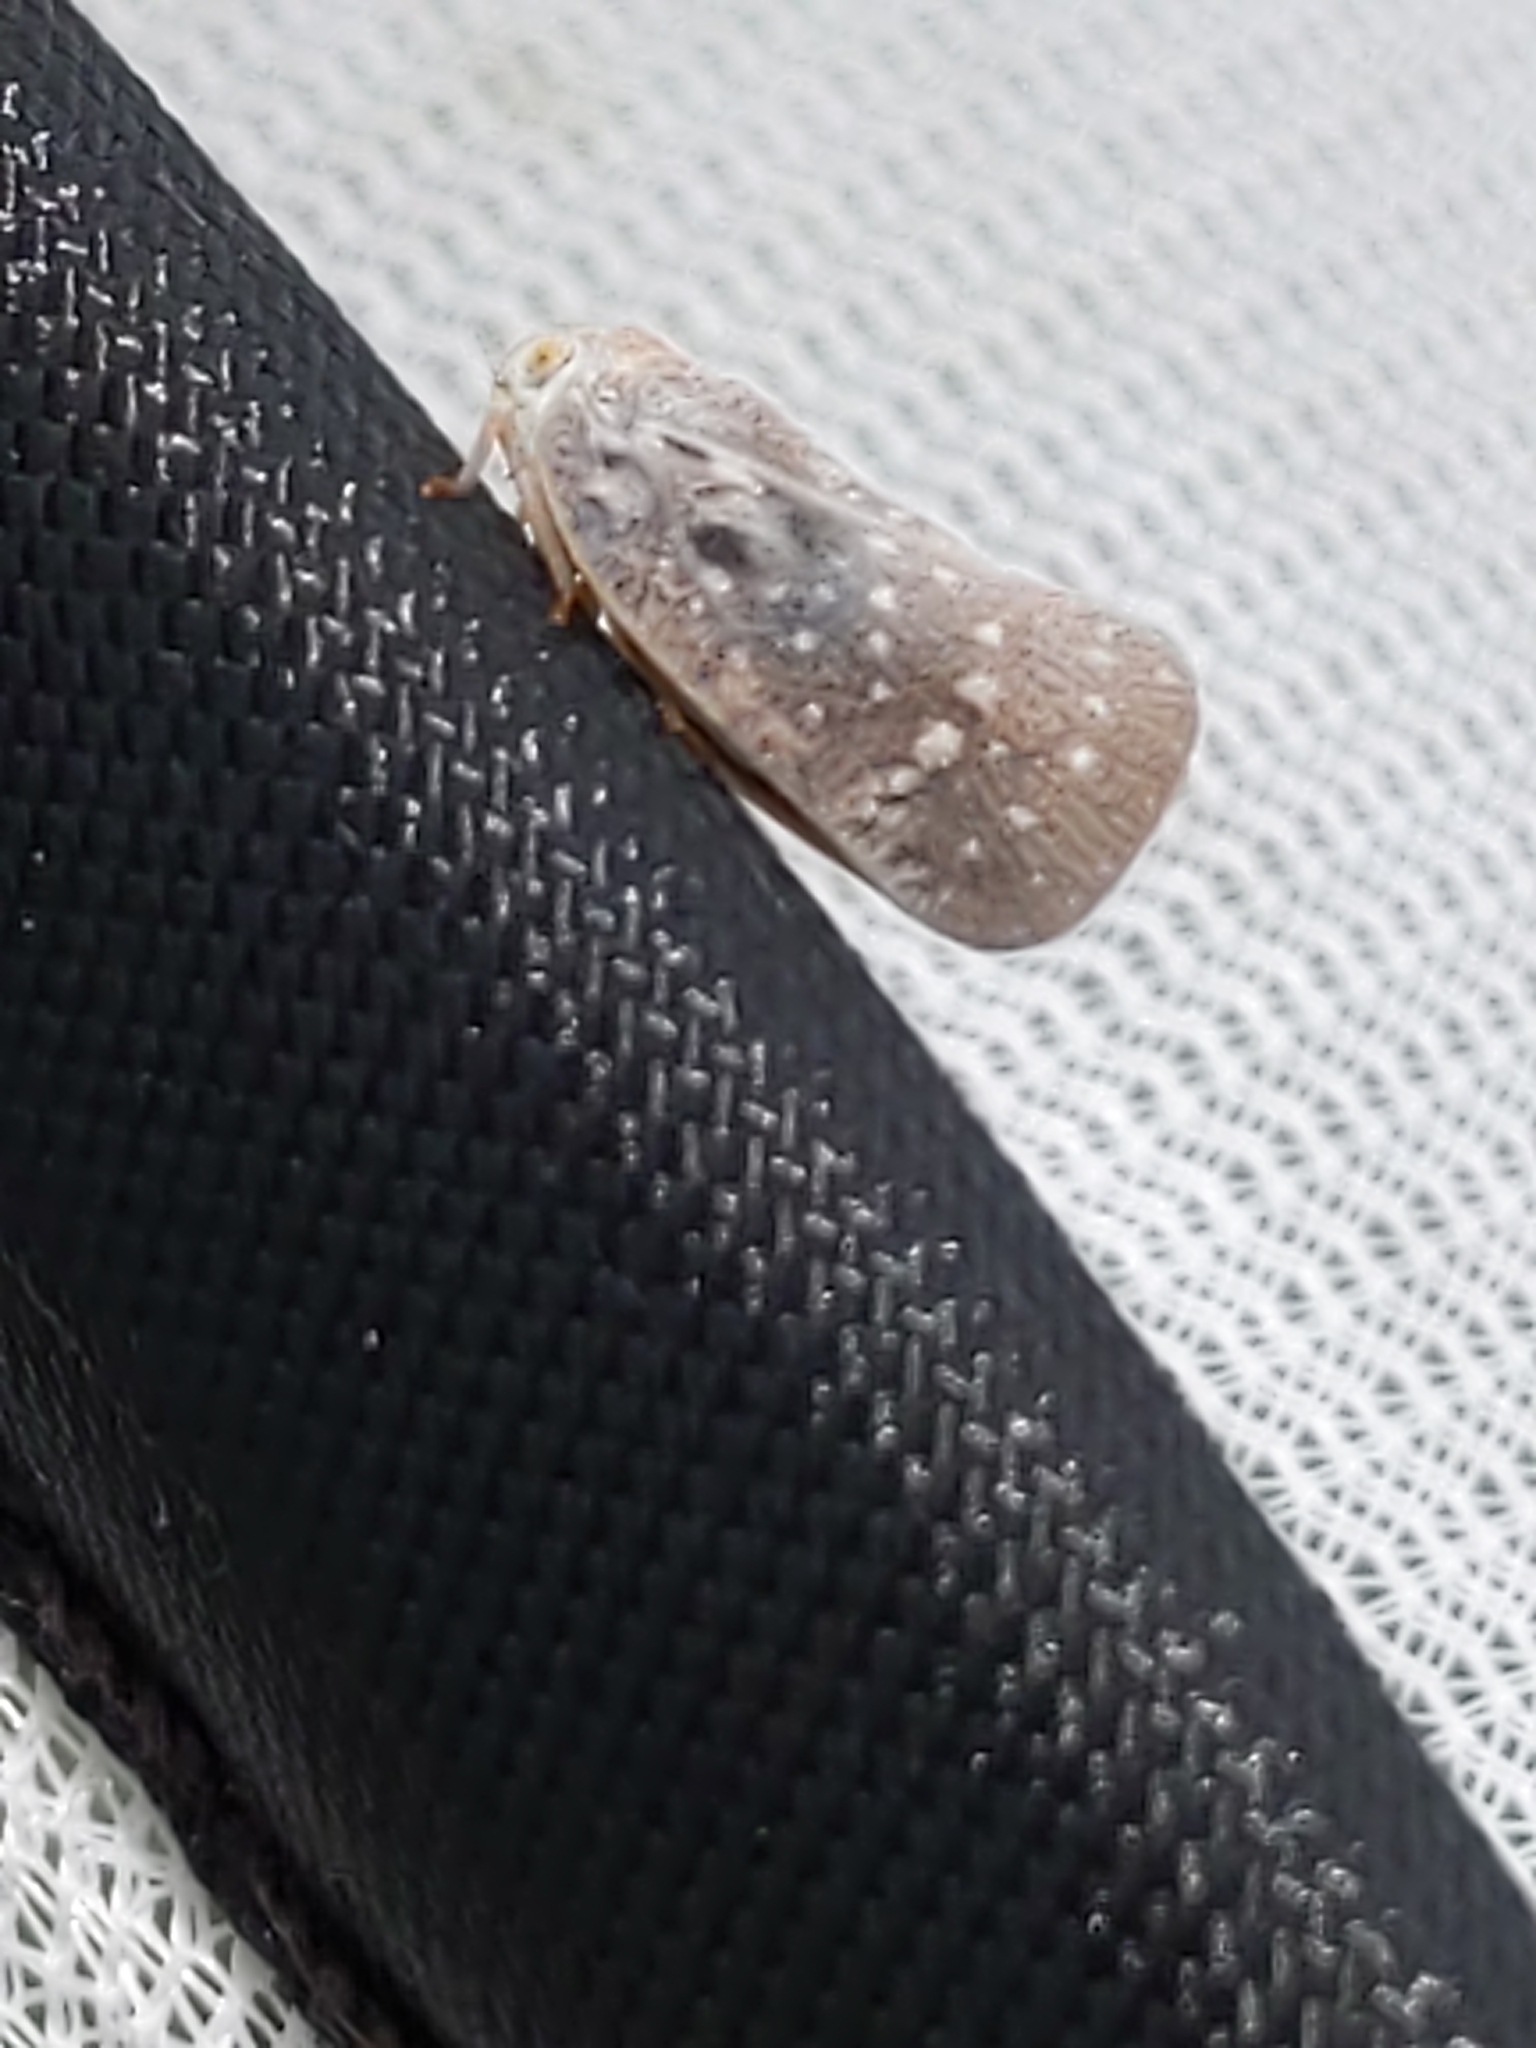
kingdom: Animalia
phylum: Arthropoda
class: Insecta
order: Hemiptera
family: Flatidae
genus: Metcalfa
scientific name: Metcalfa pruinosa
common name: Citrus flatid planthopper
